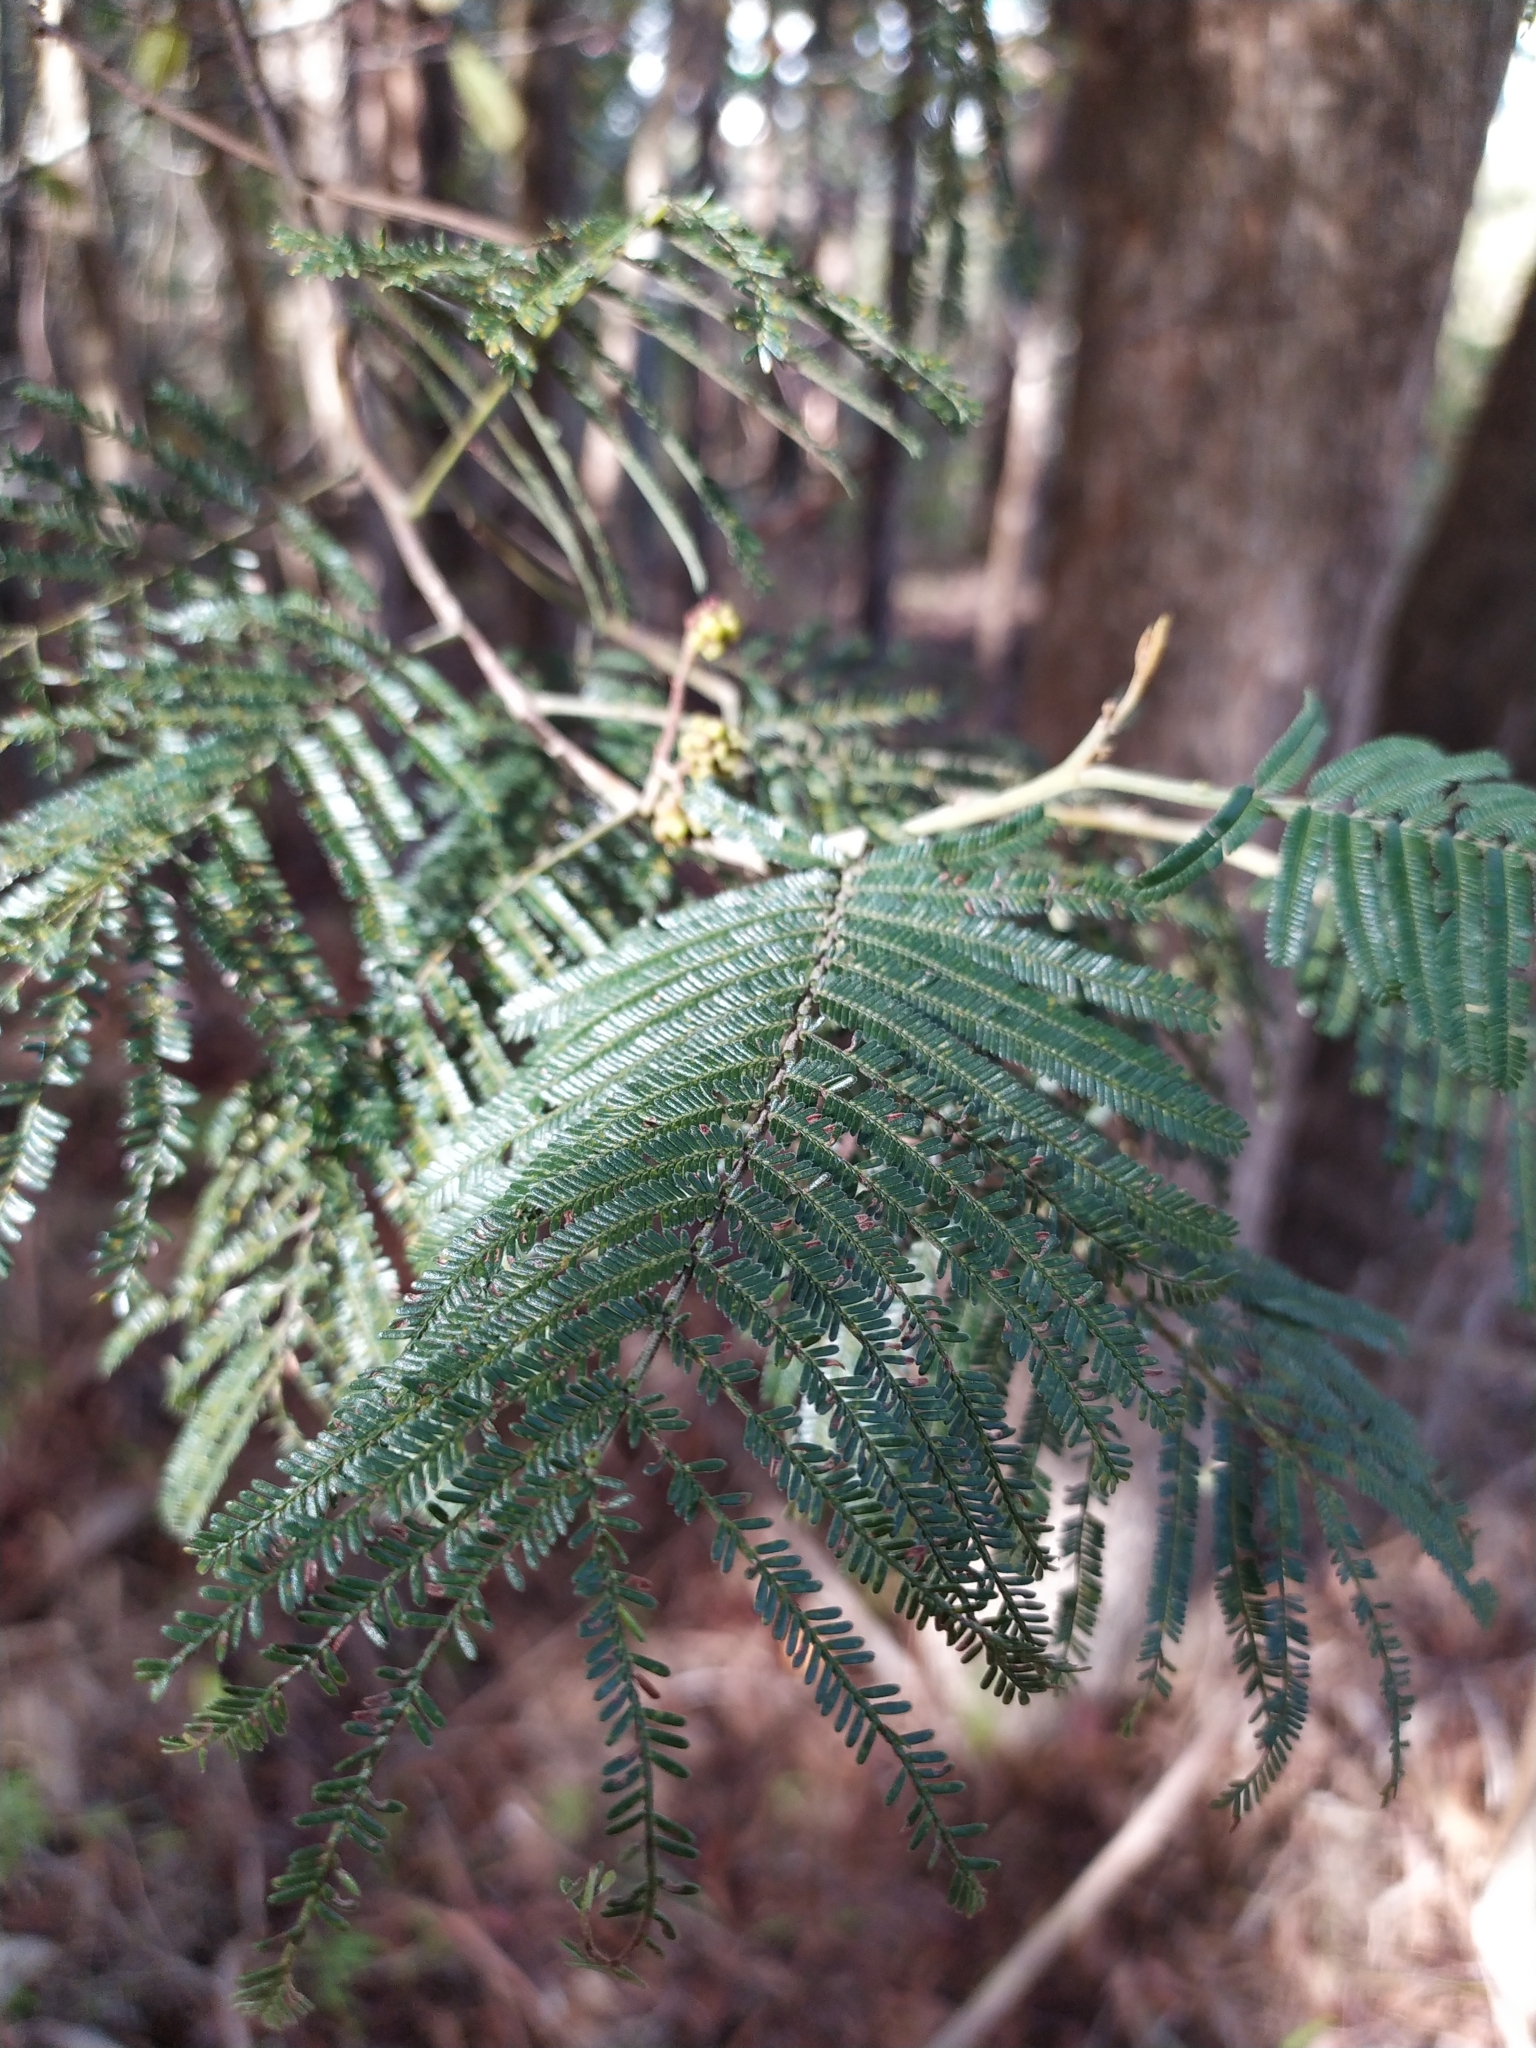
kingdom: Plantae
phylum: Tracheophyta
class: Magnoliopsida
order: Fabales
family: Fabaceae
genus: Acacia
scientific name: Acacia mearnsii
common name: Black wattle
